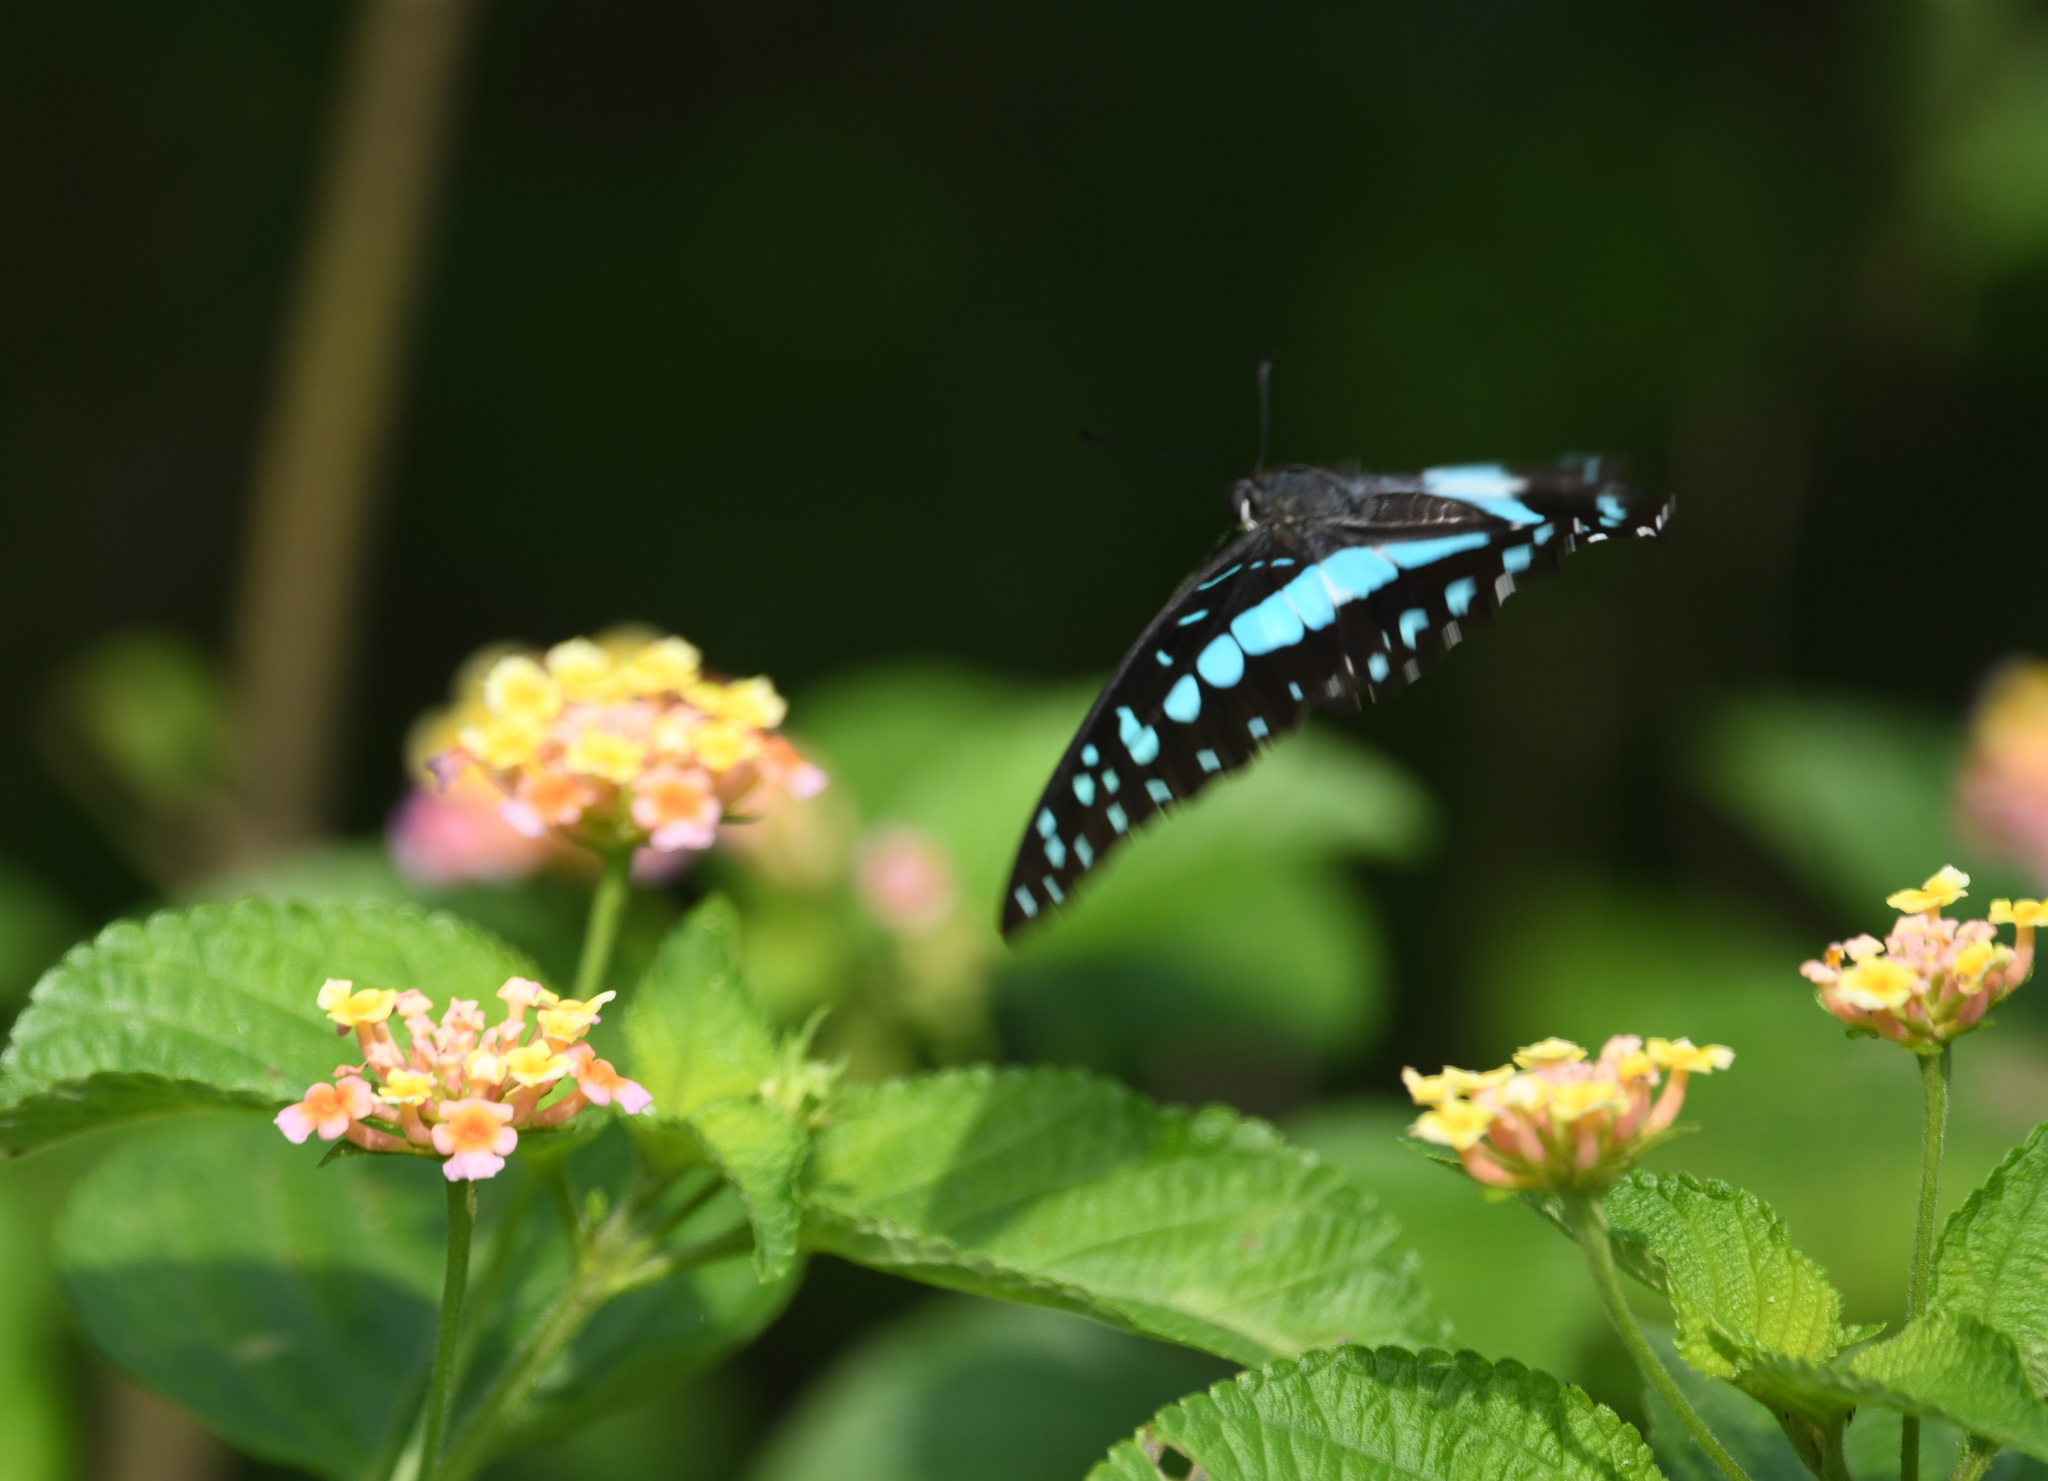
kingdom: Animalia
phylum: Arthropoda
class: Insecta
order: Lepidoptera
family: Papilionidae
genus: Graphium
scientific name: Graphium doson
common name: Common jay
